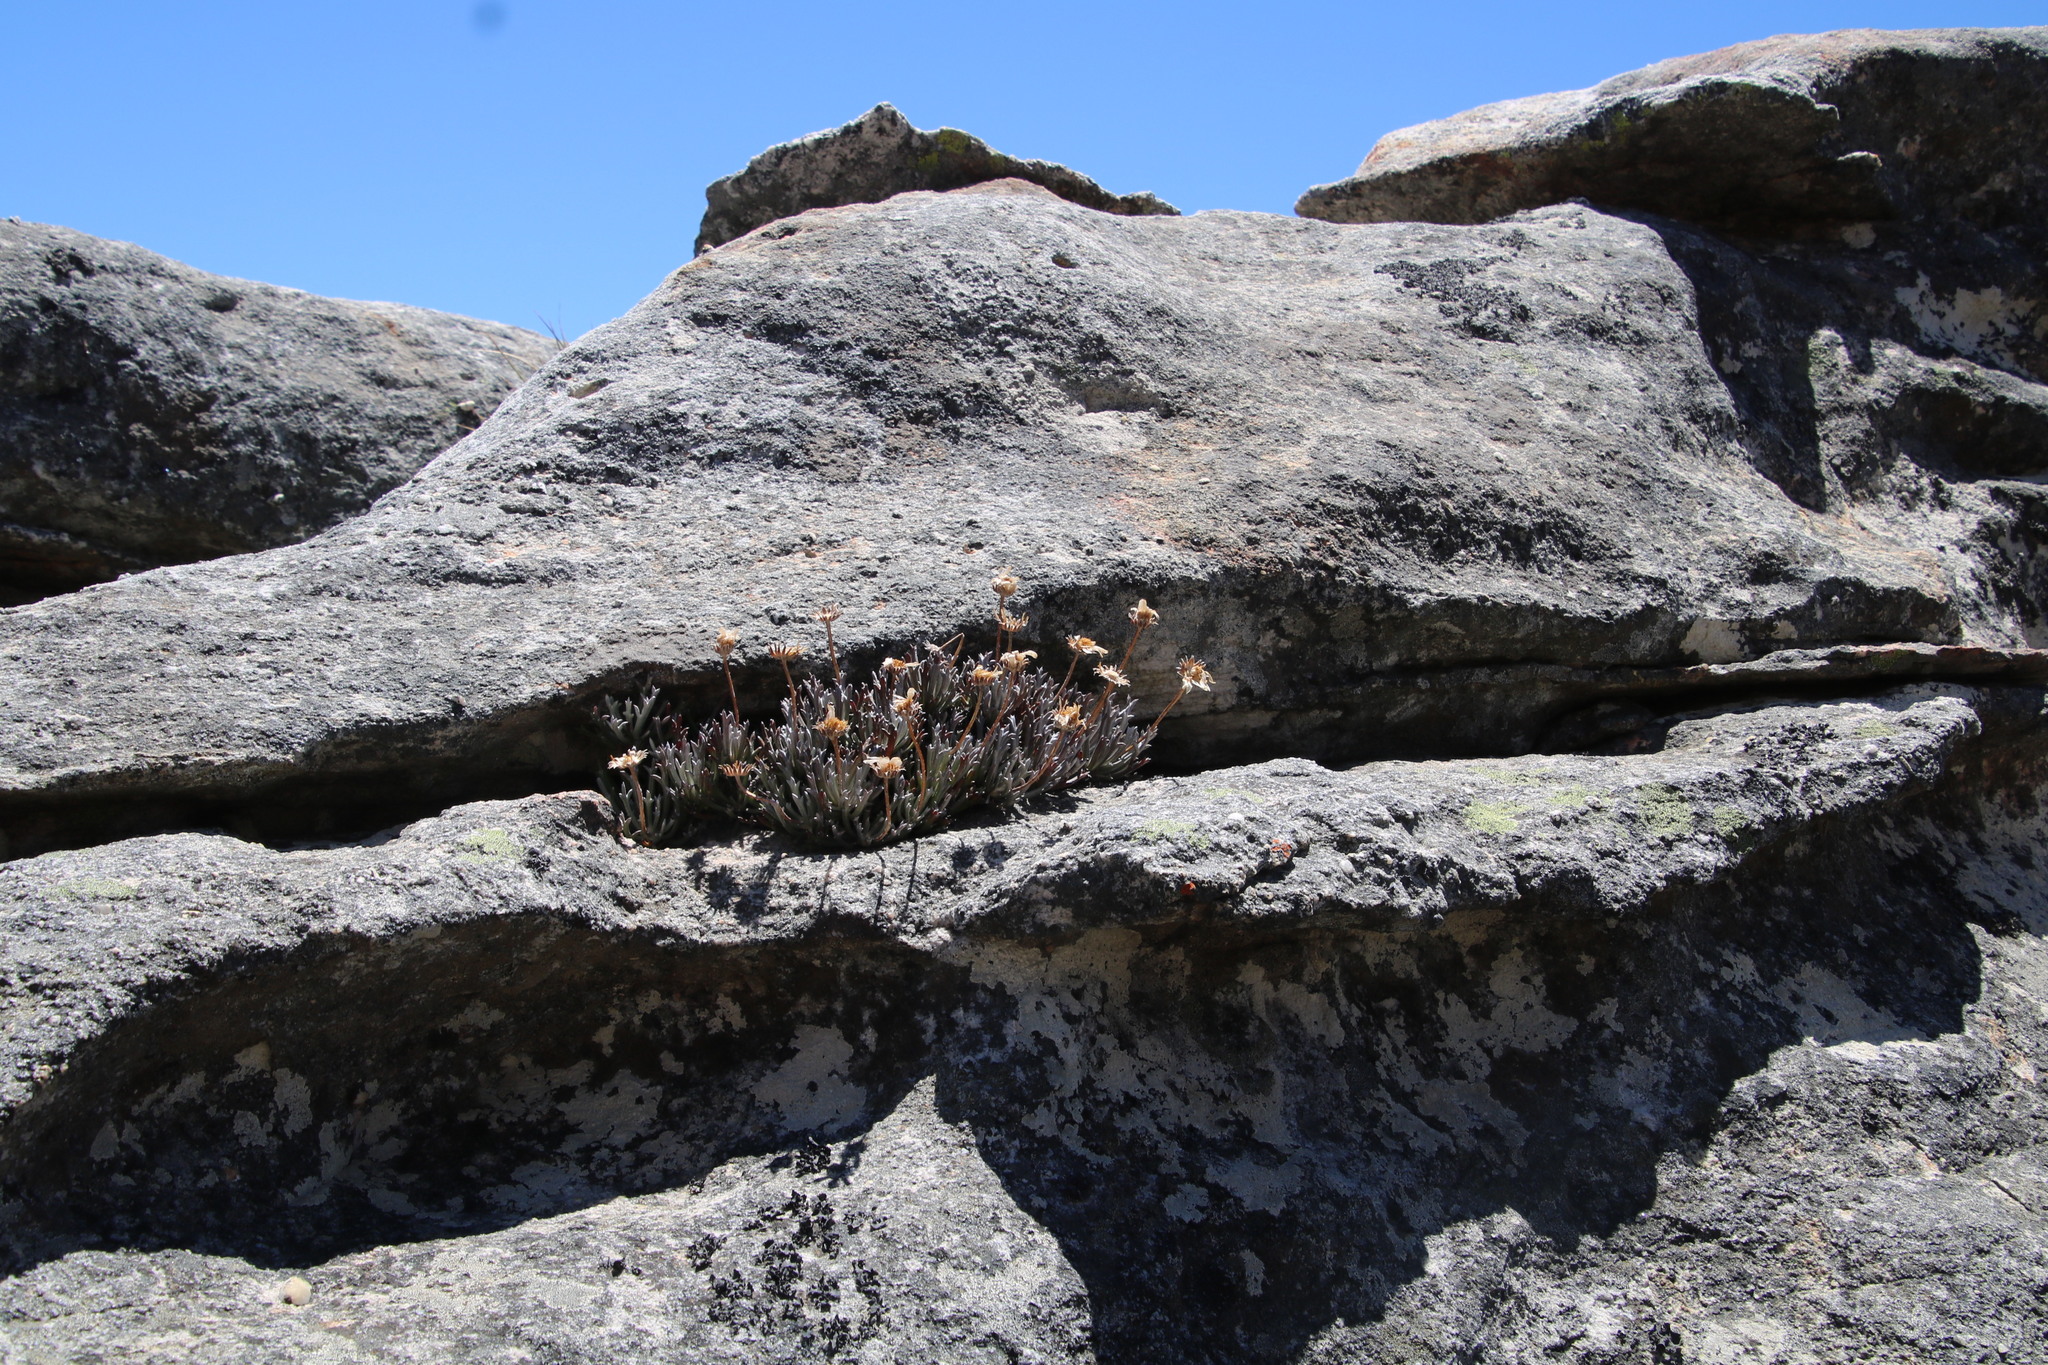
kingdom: Plantae
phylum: Tracheophyta
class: Magnoliopsida
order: Asterales
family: Asteraceae
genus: Euryops
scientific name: Euryops othonnoides
